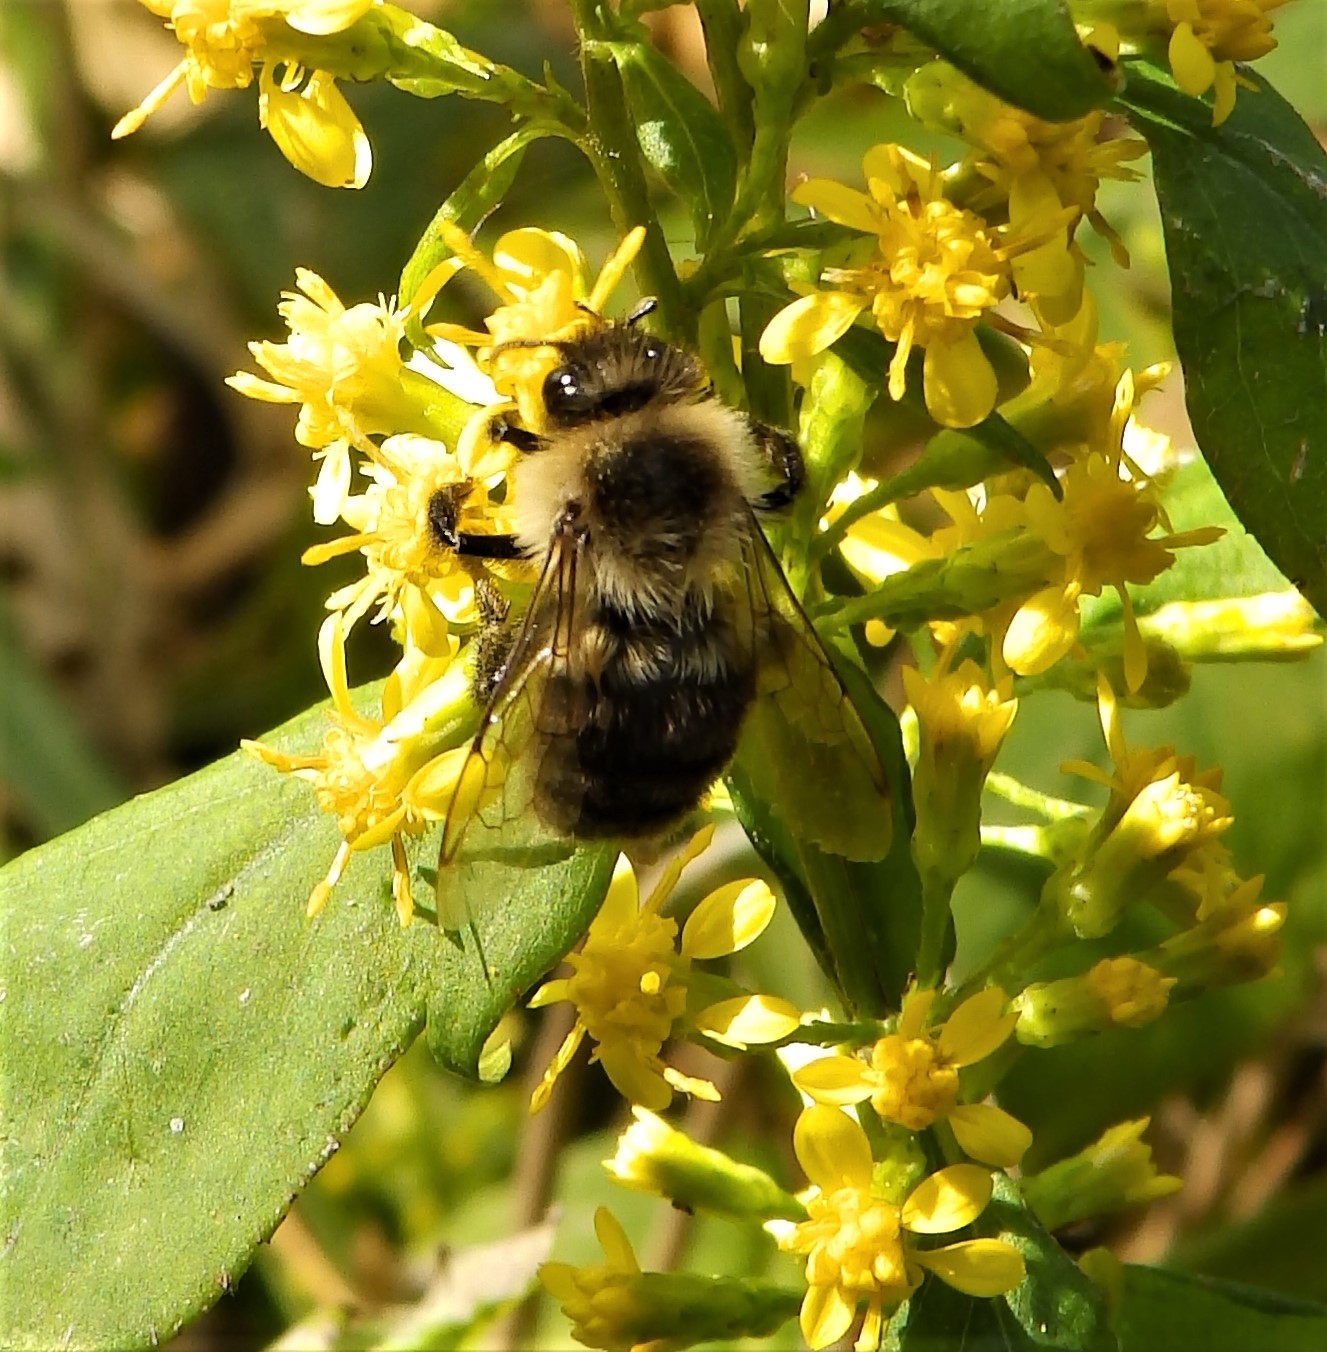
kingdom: Animalia
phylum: Arthropoda
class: Insecta
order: Hymenoptera
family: Apidae
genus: Bombus
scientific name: Bombus impatiens
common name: Common eastern bumble bee
